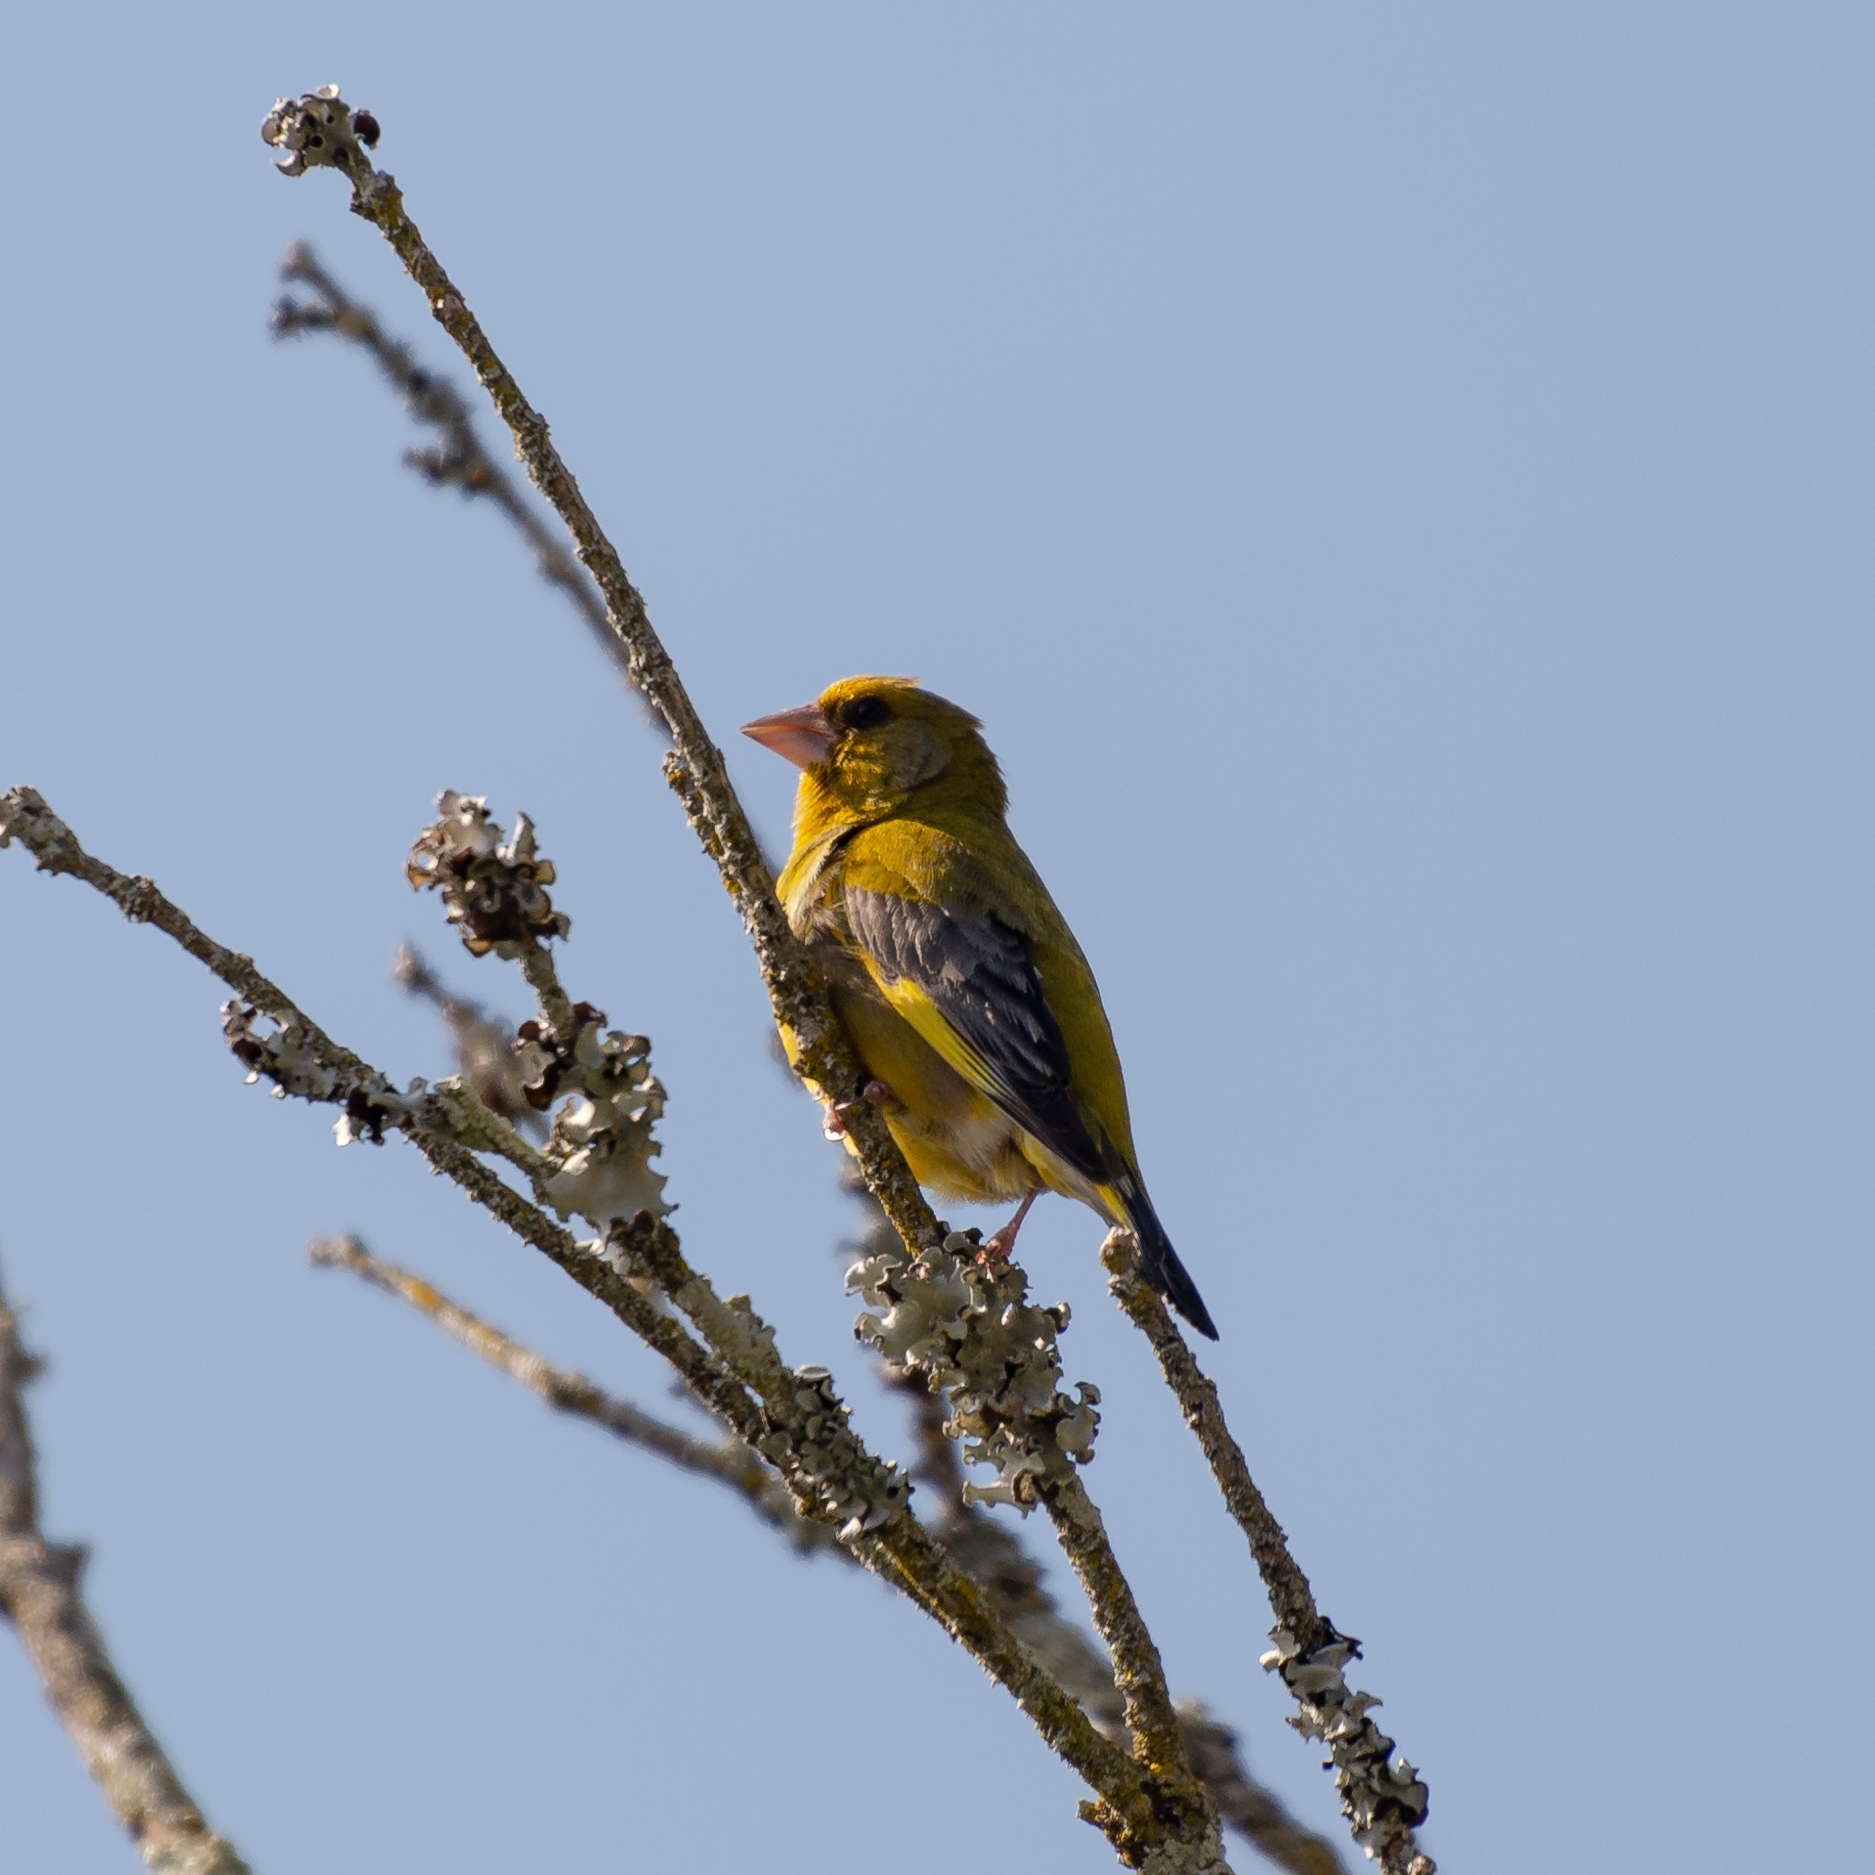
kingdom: Plantae
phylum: Tracheophyta
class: Liliopsida
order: Poales
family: Poaceae
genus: Chloris
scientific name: Chloris chloris
